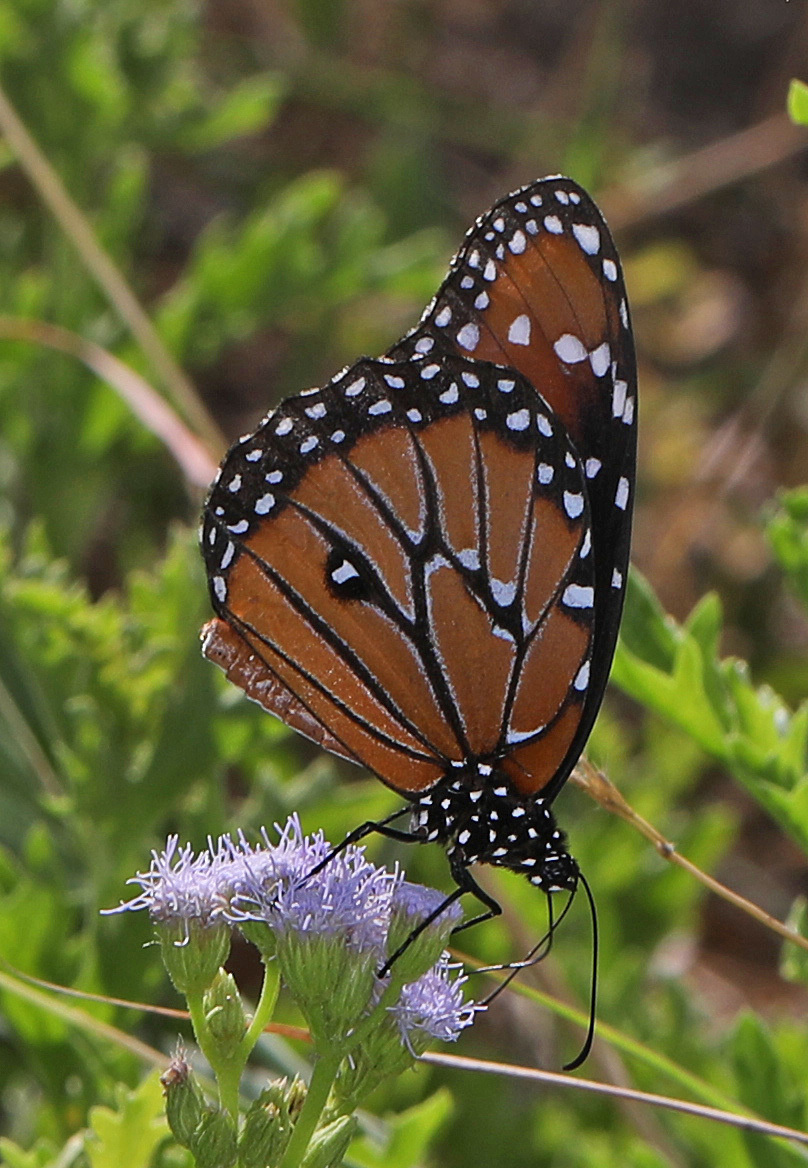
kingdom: Animalia
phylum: Arthropoda
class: Insecta
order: Lepidoptera
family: Nymphalidae
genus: Danaus
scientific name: Danaus gilippus
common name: Queen
